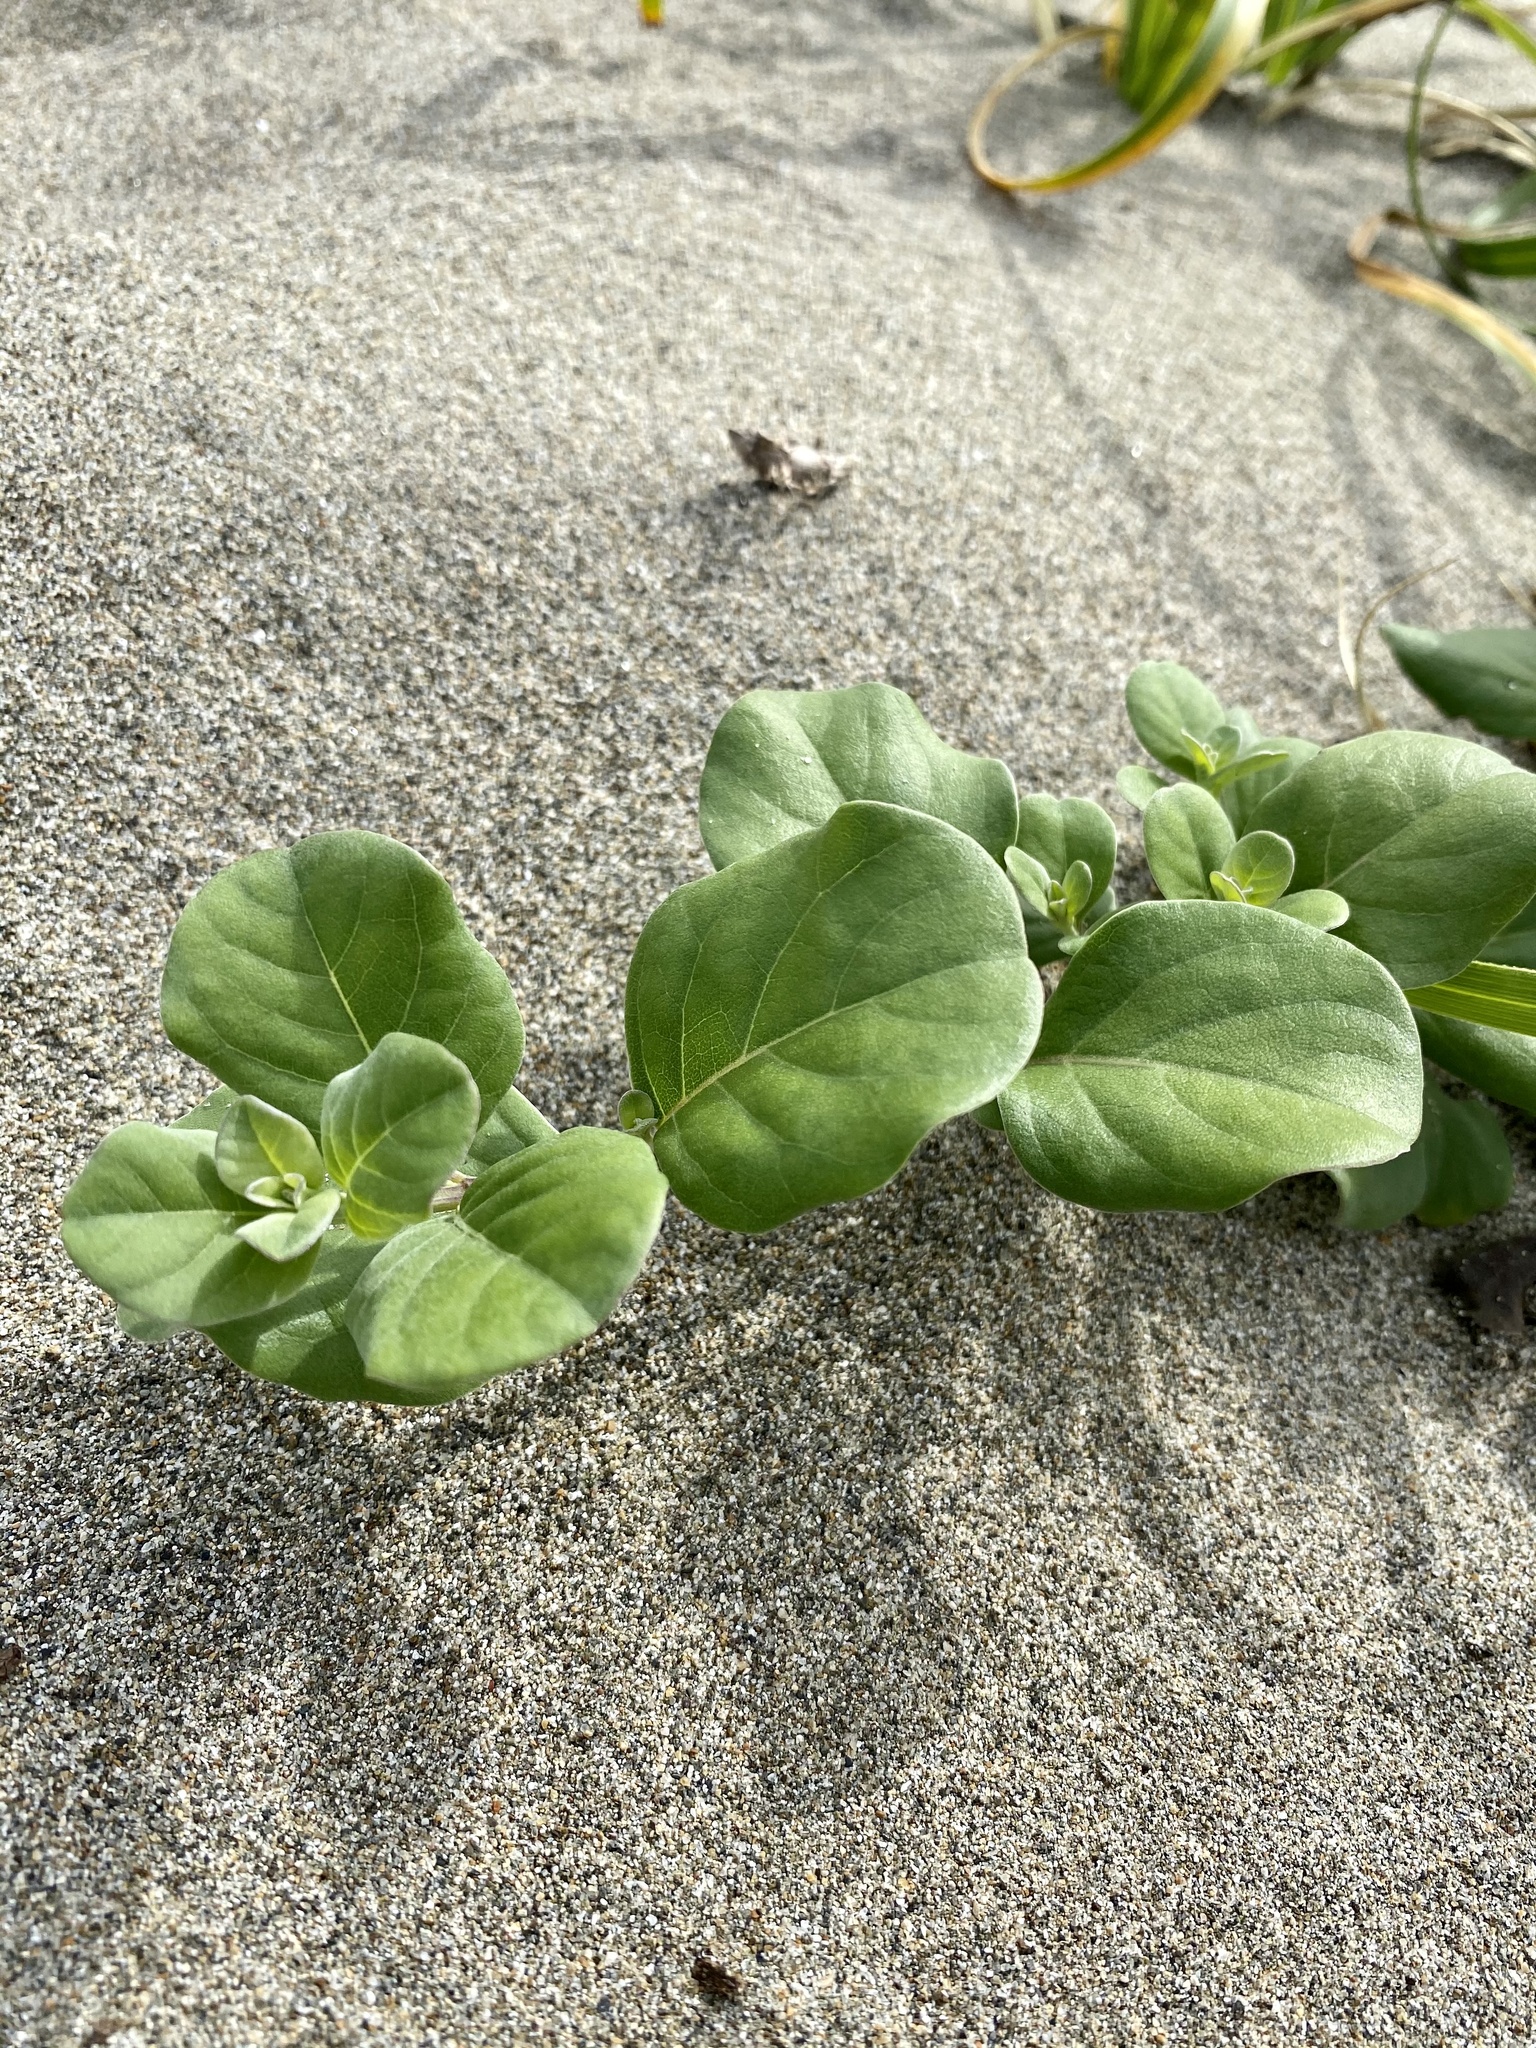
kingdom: Plantae
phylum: Tracheophyta
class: Magnoliopsida
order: Lamiales
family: Lamiaceae
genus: Vitex
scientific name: Vitex rotundifolia
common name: Beach vitex
